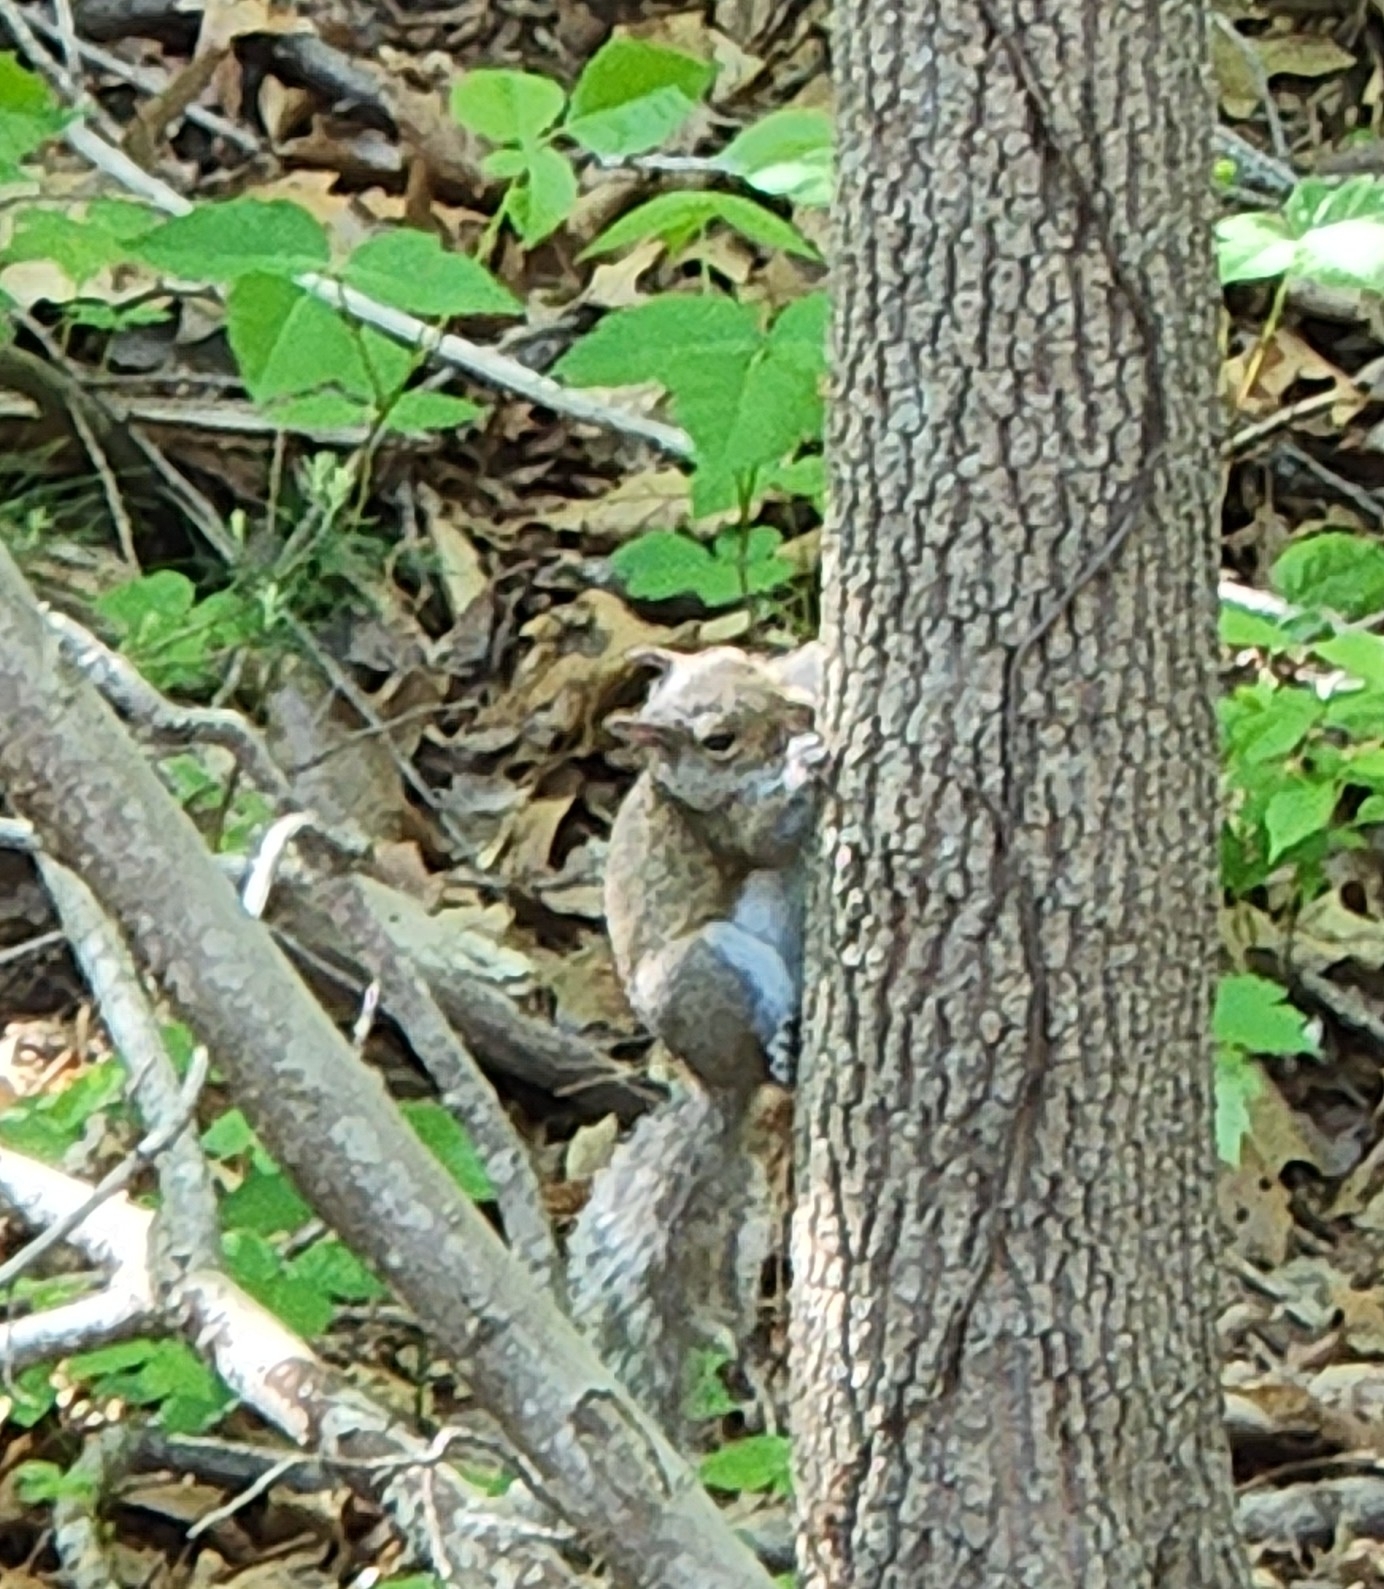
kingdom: Animalia
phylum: Chordata
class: Mammalia
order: Rodentia
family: Sciuridae
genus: Sciurus
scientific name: Sciurus carolinensis
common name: Eastern gray squirrel
